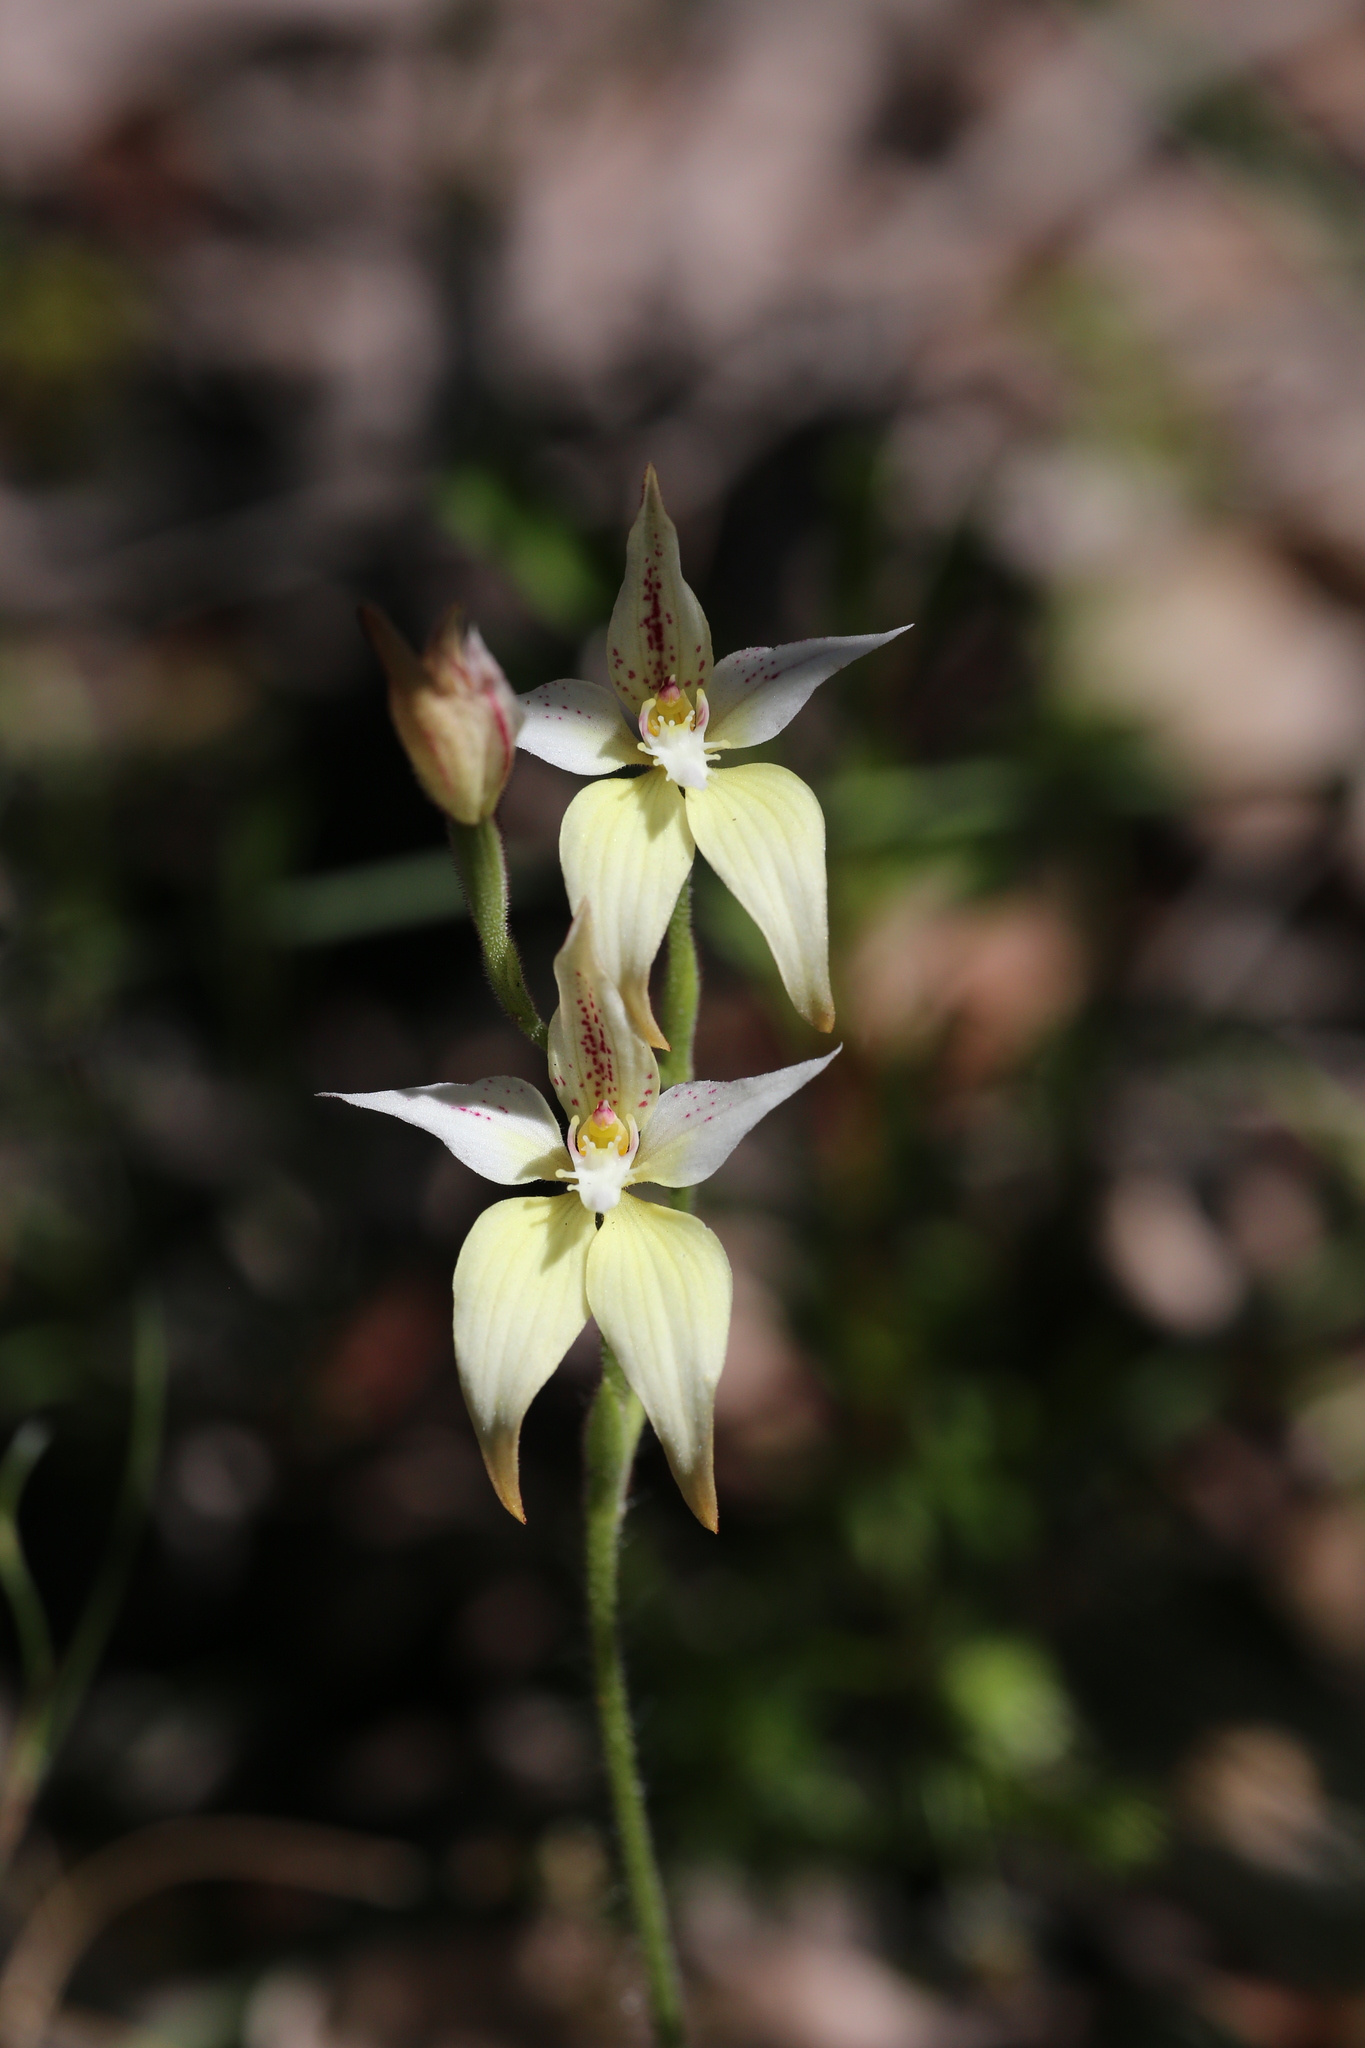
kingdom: Plantae
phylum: Tracheophyta
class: Liliopsida
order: Asparagales
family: Orchidaceae
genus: Caladenia
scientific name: Caladenia flava
